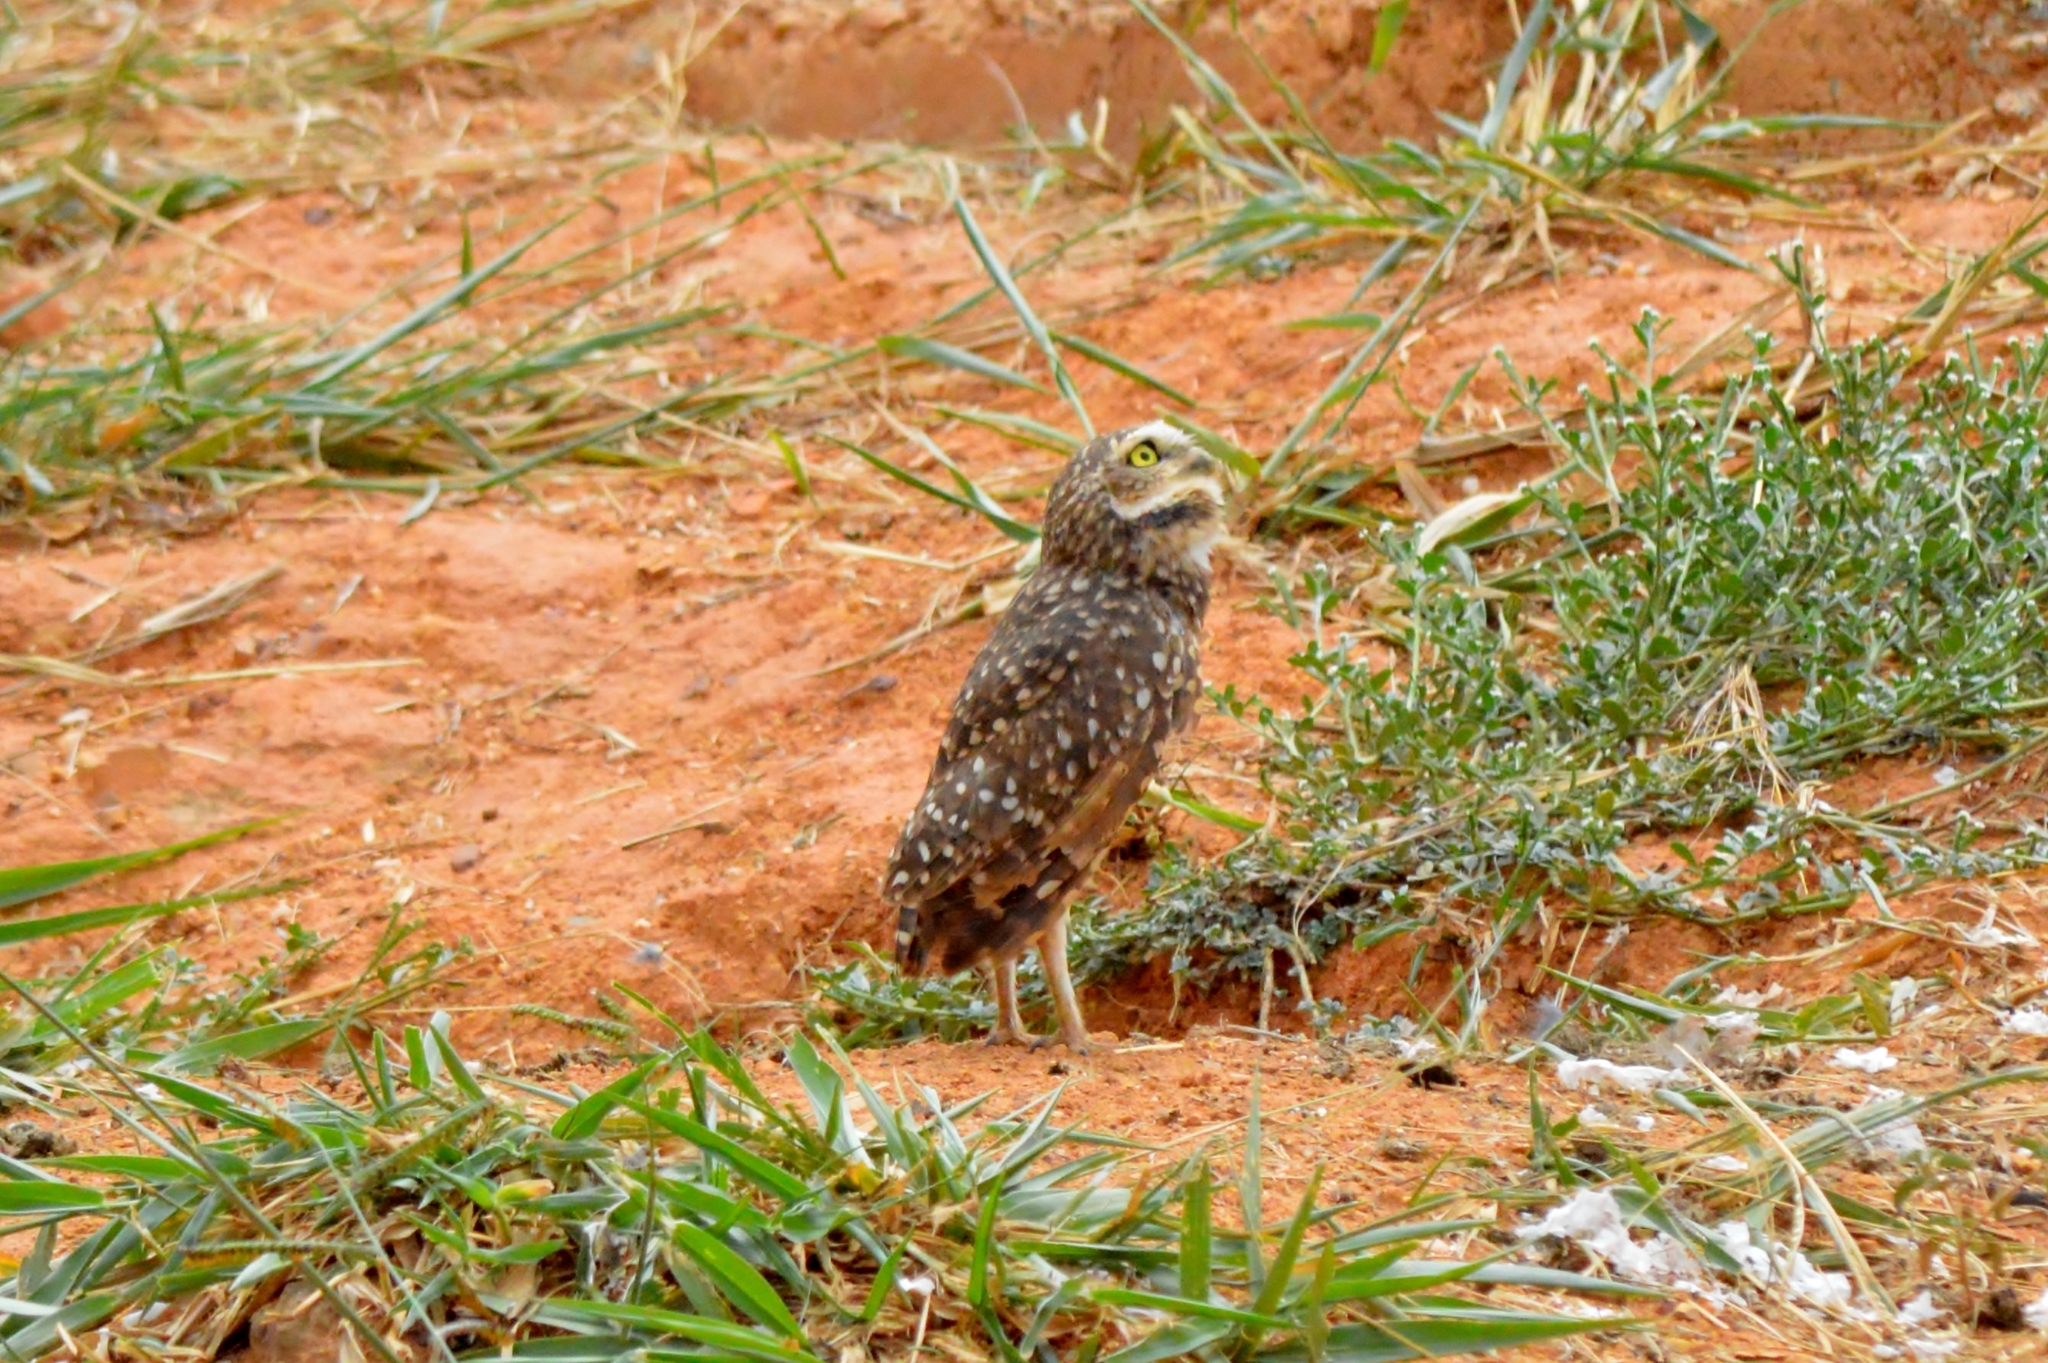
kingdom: Animalia
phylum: Chordata
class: Aves
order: Strigiformes
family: Strigidae
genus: Athene
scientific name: Athene cunicularia
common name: Burrowing owl
